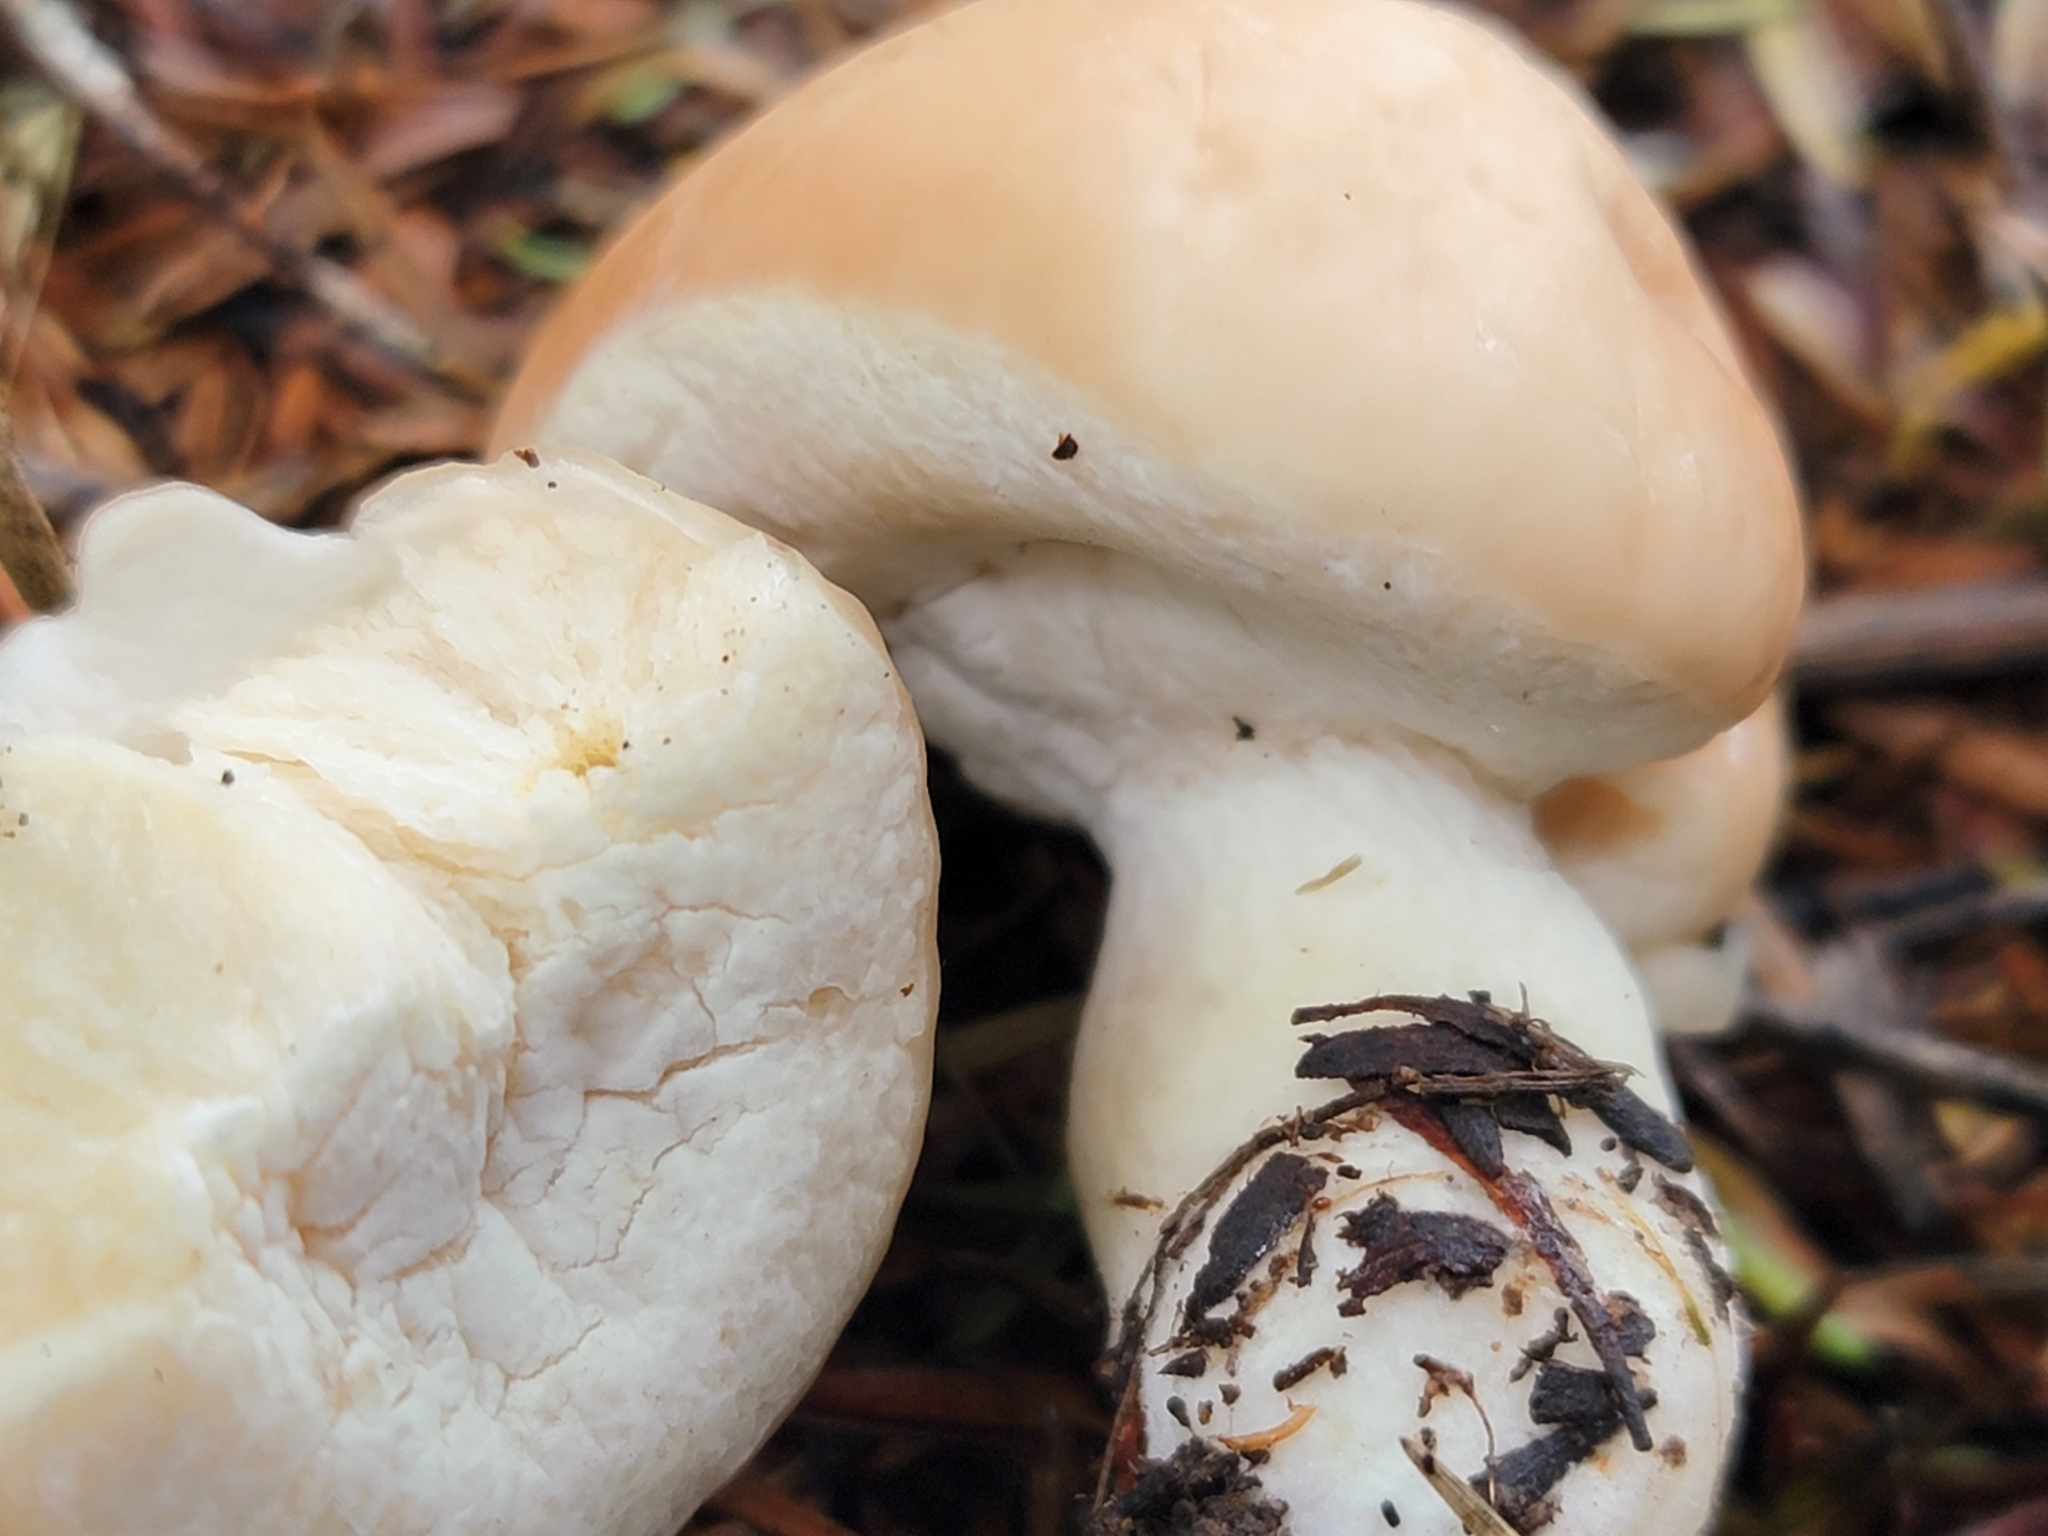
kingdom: Fungi
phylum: Basidiomycota
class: Agaricomycetes
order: Boletales
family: Boletaceae
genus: Boletus
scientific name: Boletus semigastroideus
